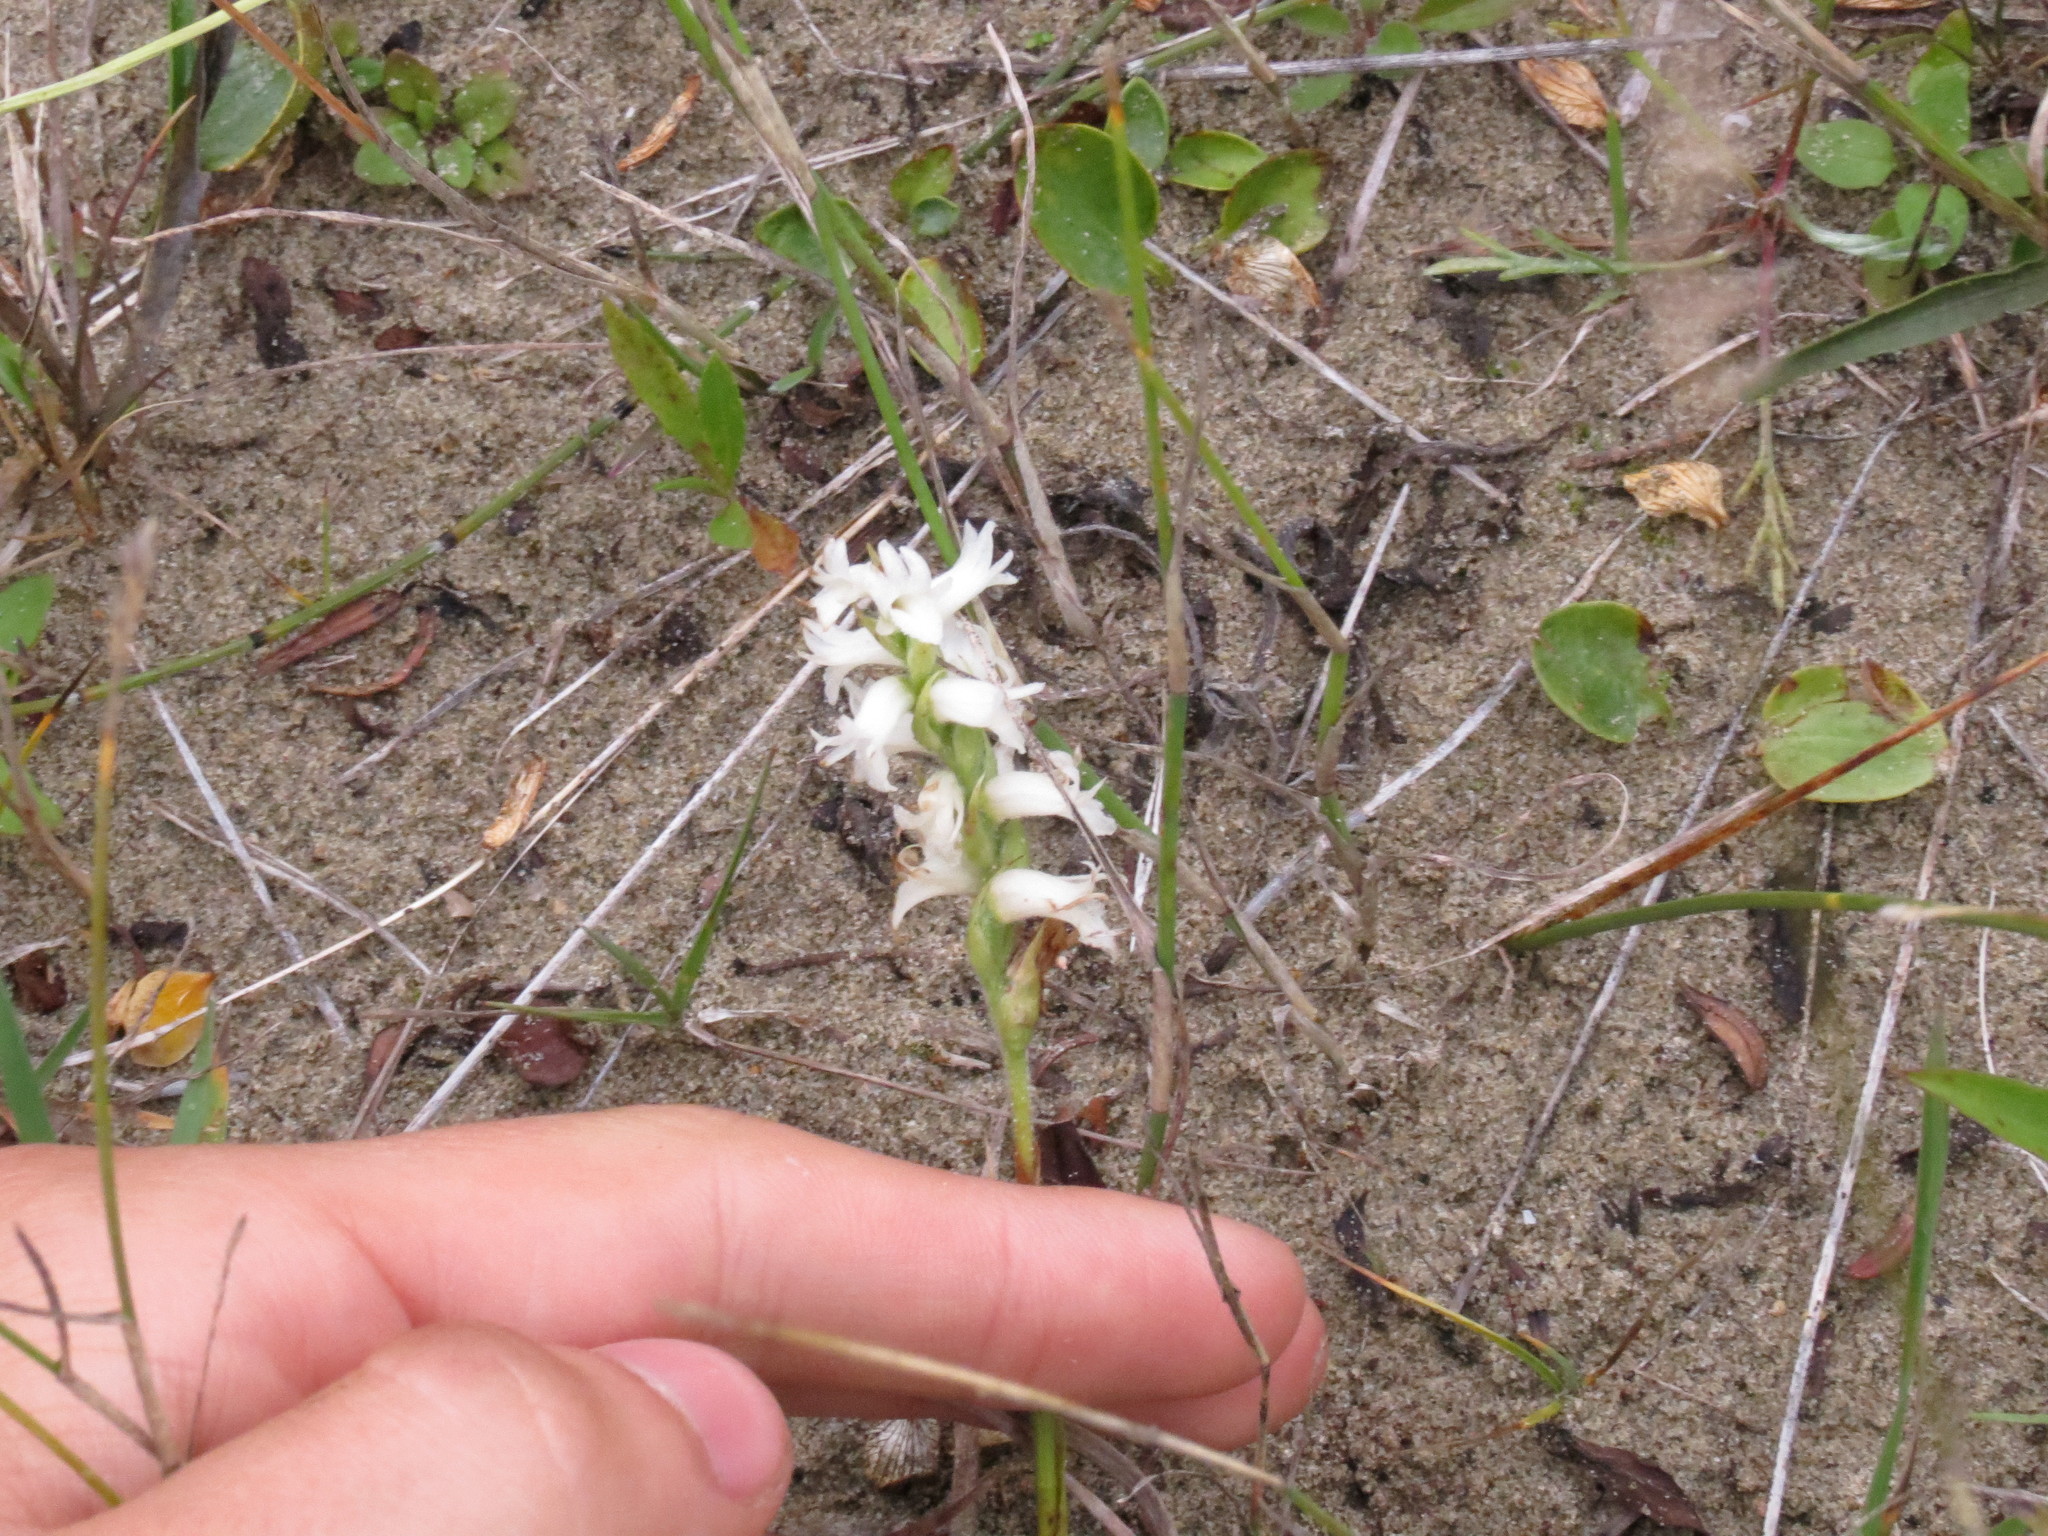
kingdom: Plantae
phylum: Tracheophyta
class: Liliopsida
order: Asparagales
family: Orchidaceae
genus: Spiranthes
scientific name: Spiranthes incurva
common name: Sphinx ladies'-tresses
